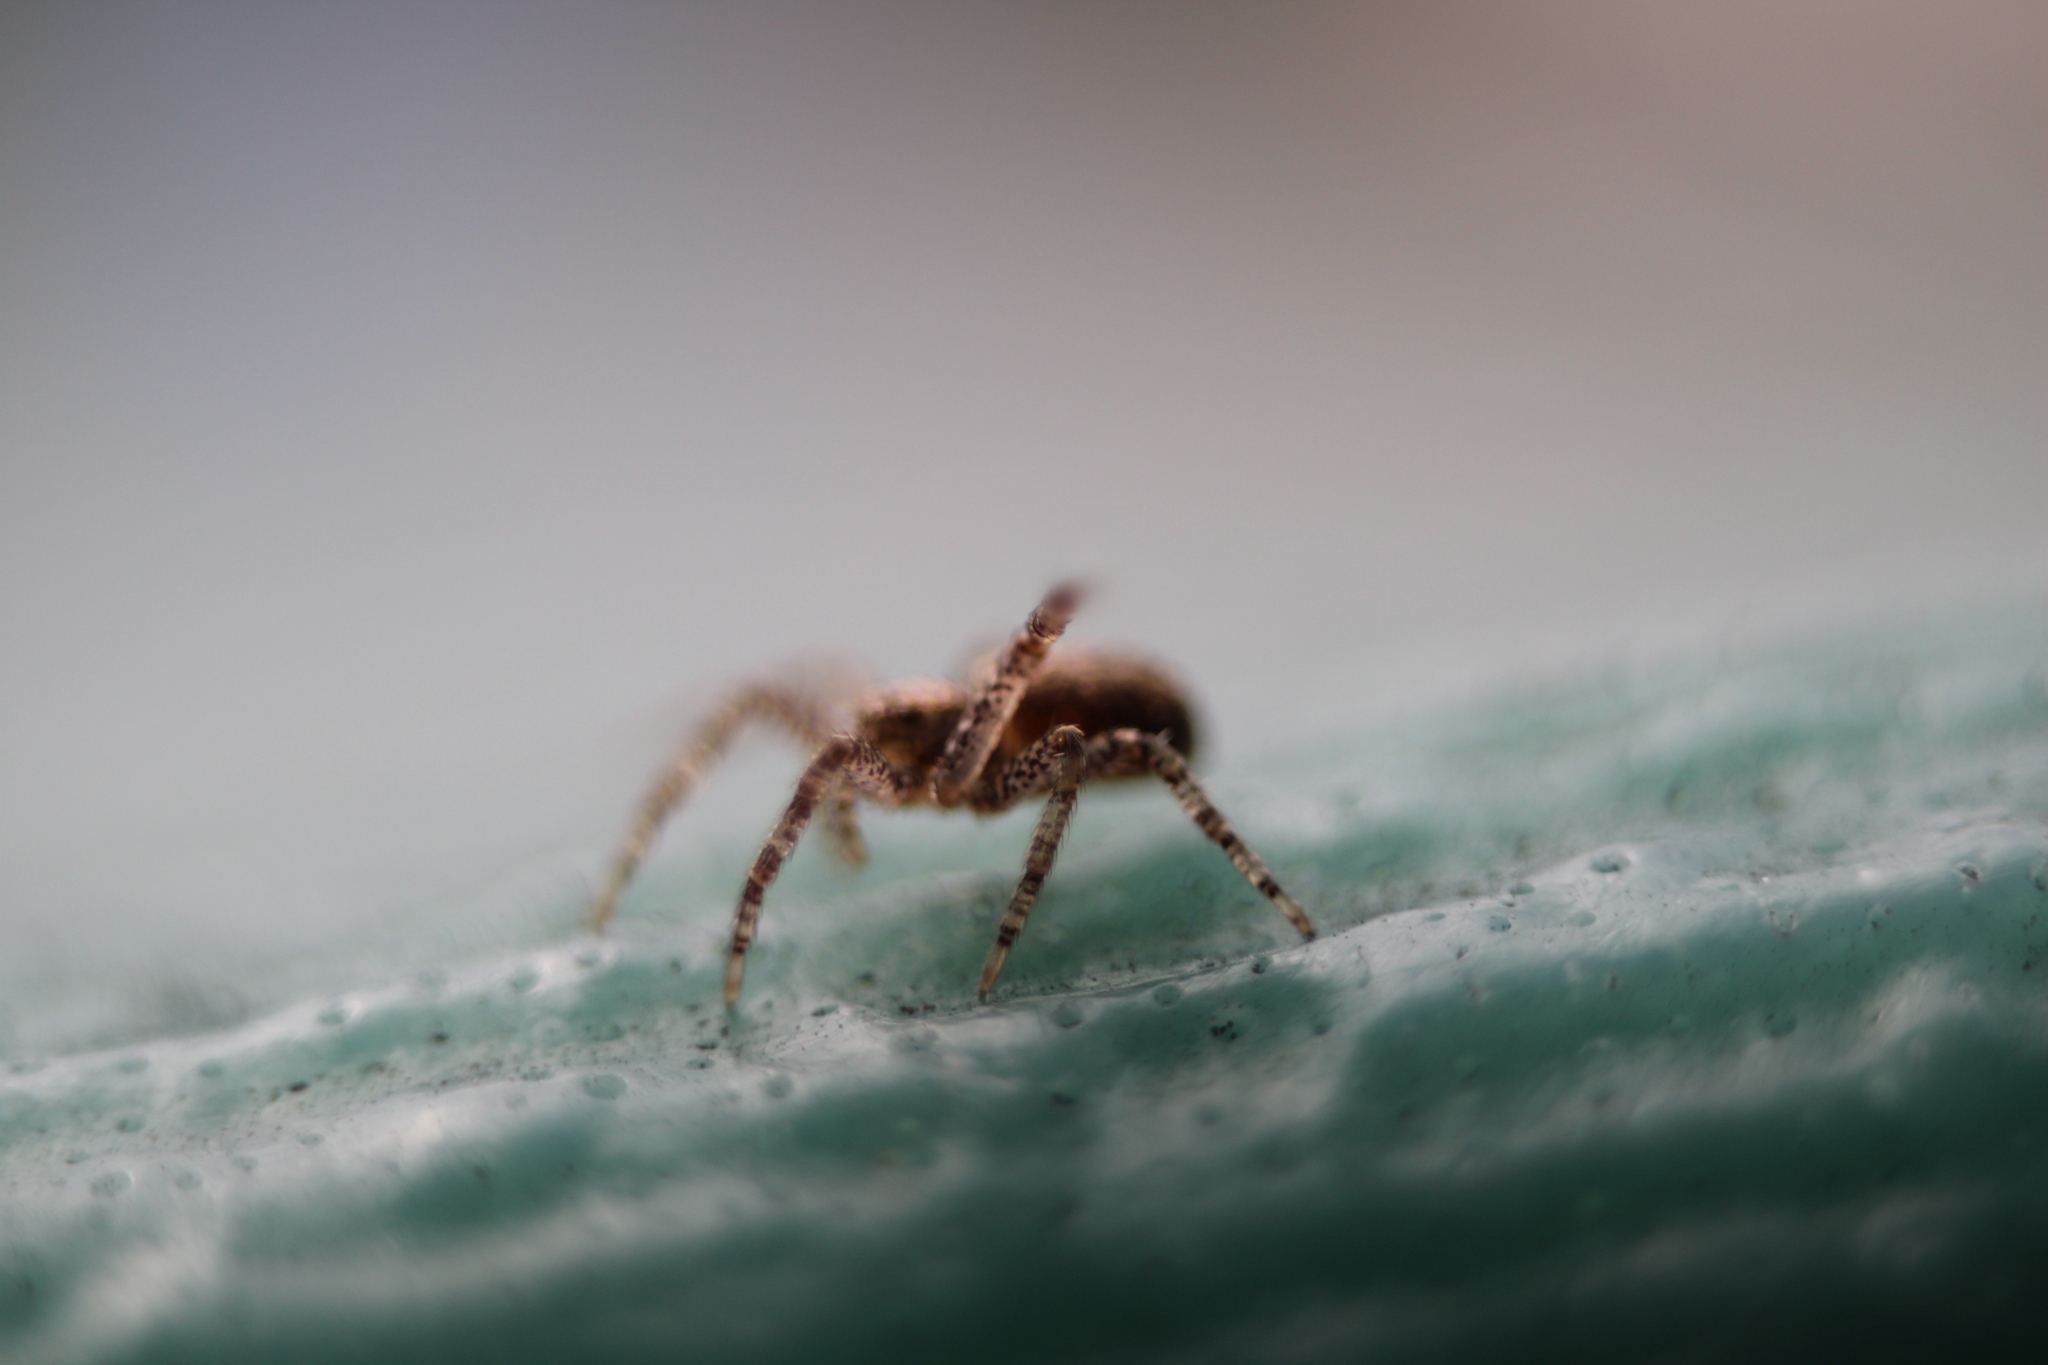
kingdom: Animalia
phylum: Arthropoda
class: Arachnida
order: Araneae
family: Philodromidae
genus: Philodromus
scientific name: Philodromus
